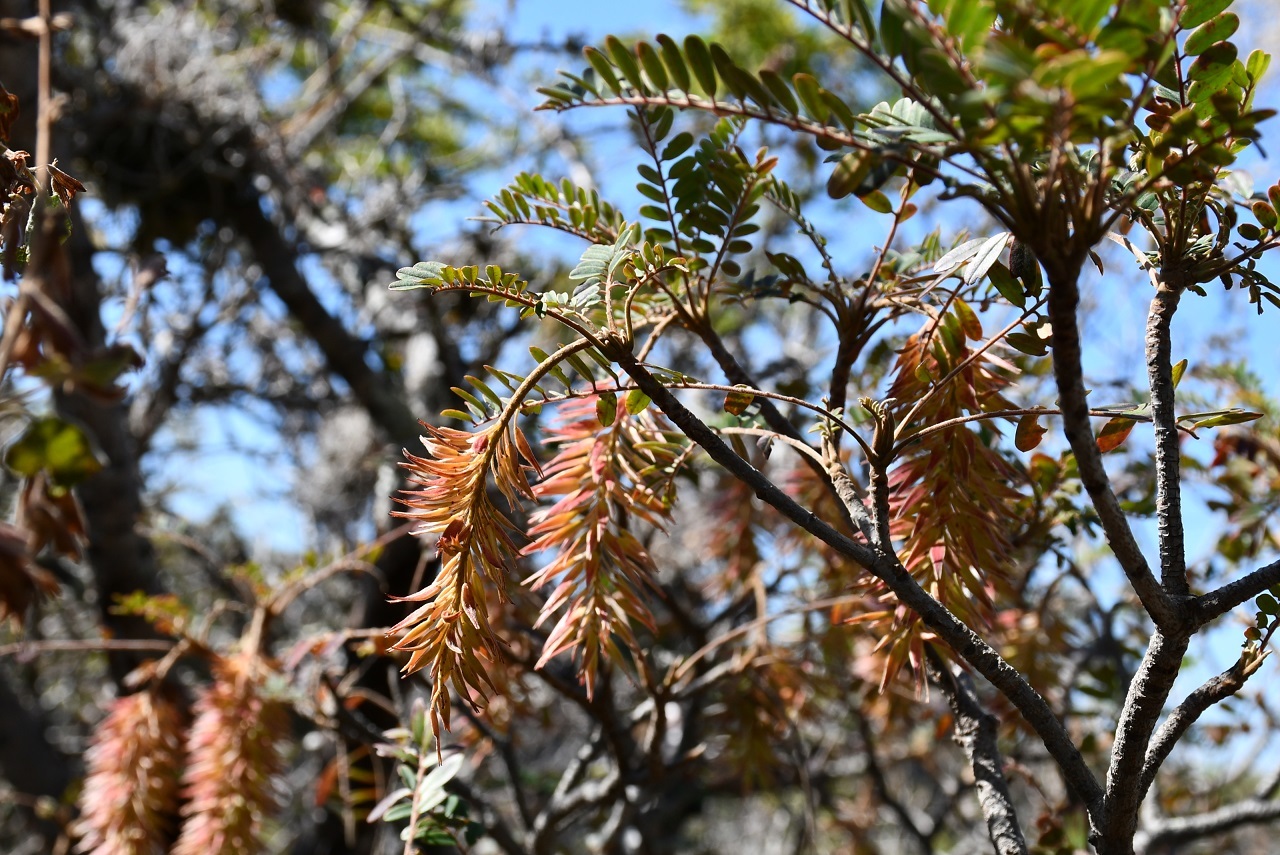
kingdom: Plantae
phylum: Tracheophyta
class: Magnoliopsida
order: Picramniales
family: Picramniaceae
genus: Alvaradoa
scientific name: Alvaradoa amorphoides
